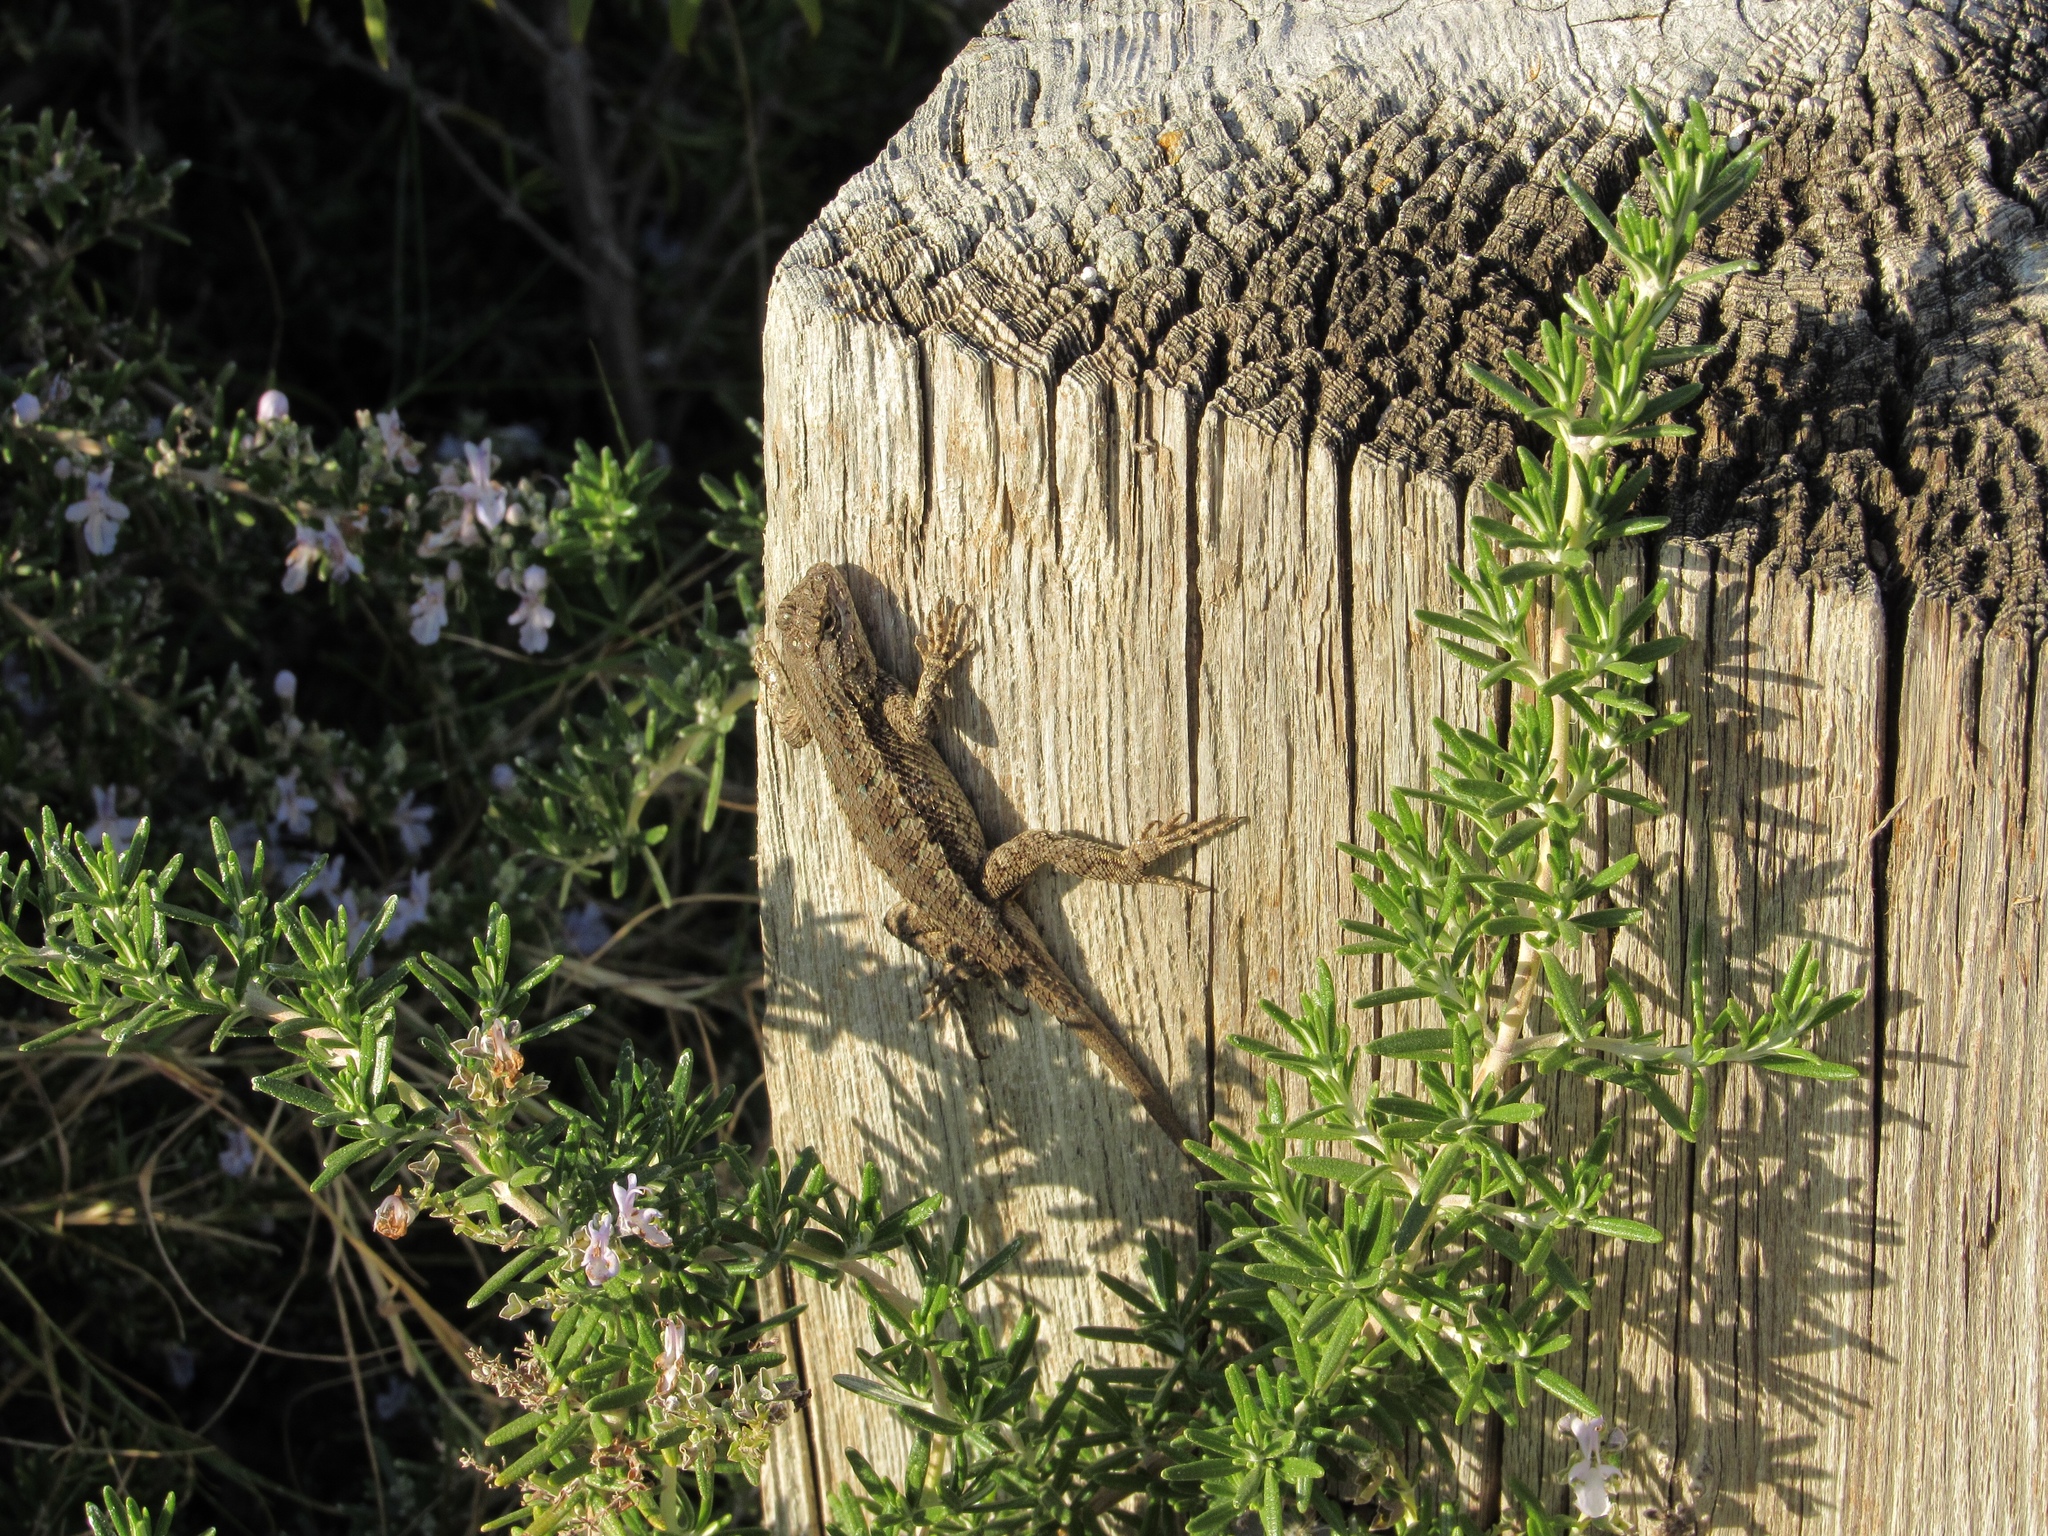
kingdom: Animalia
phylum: Chordata
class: Squamata
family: Phrynosomatidae
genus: Sceloporus
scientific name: Sceloporus occidentalis
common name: Western fence lizard
